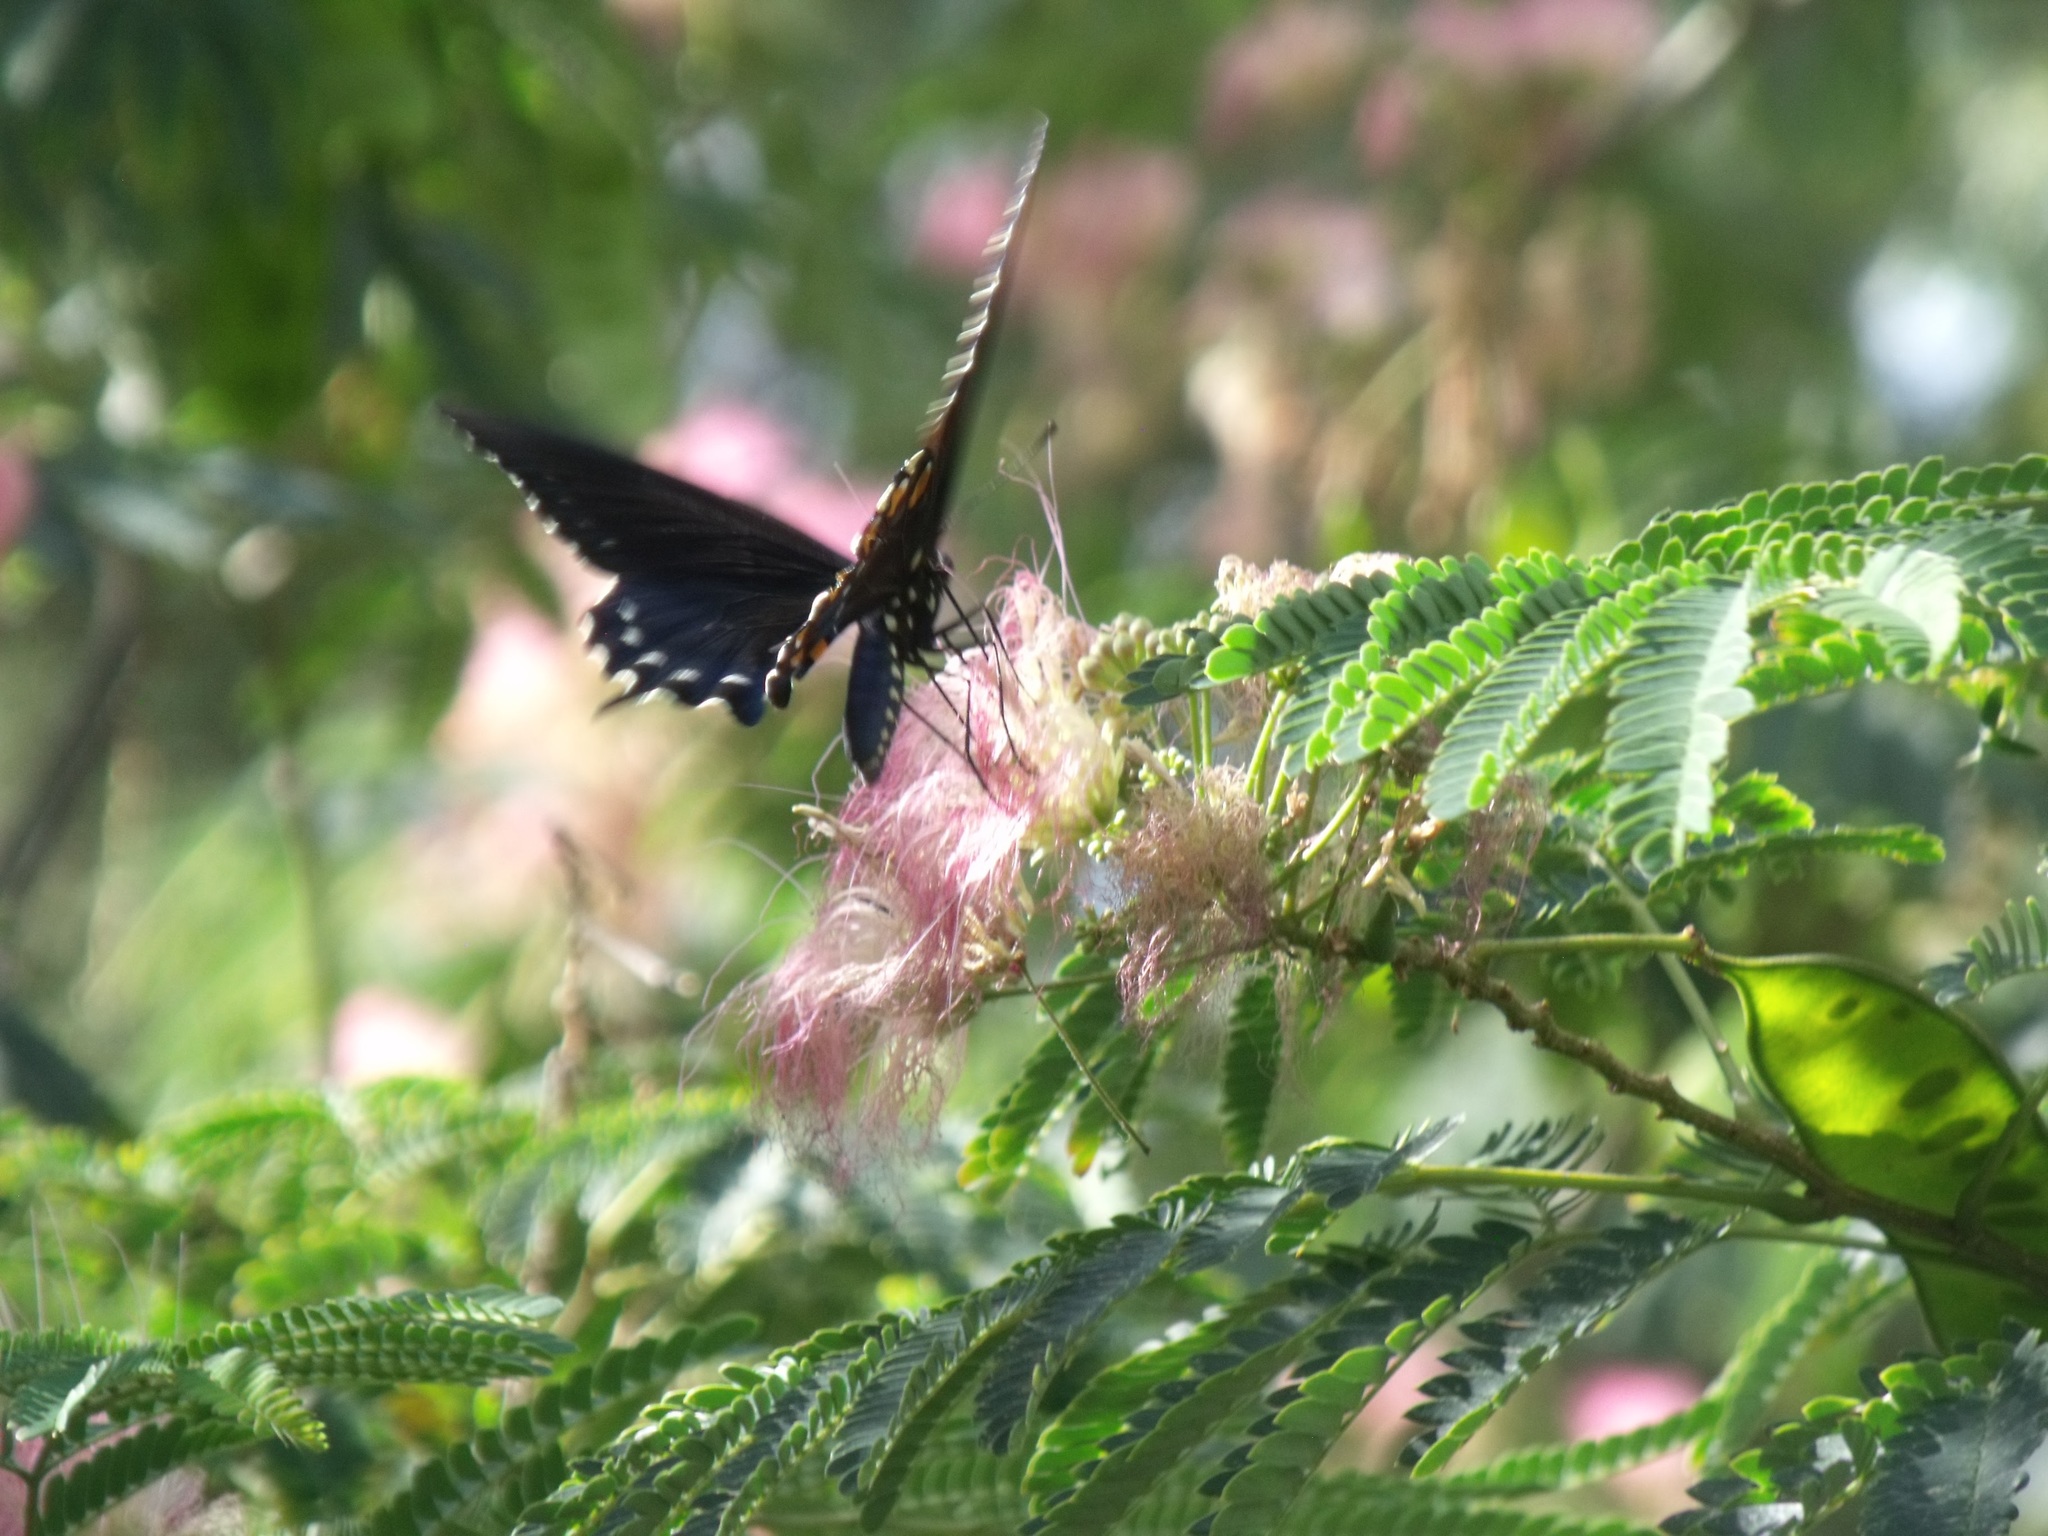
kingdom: Animalia
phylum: Arthropoda
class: Insecta
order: Lepidoptera
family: Papilionidae
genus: Battus
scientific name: Battus philenor
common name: Pipevine swallowtail
